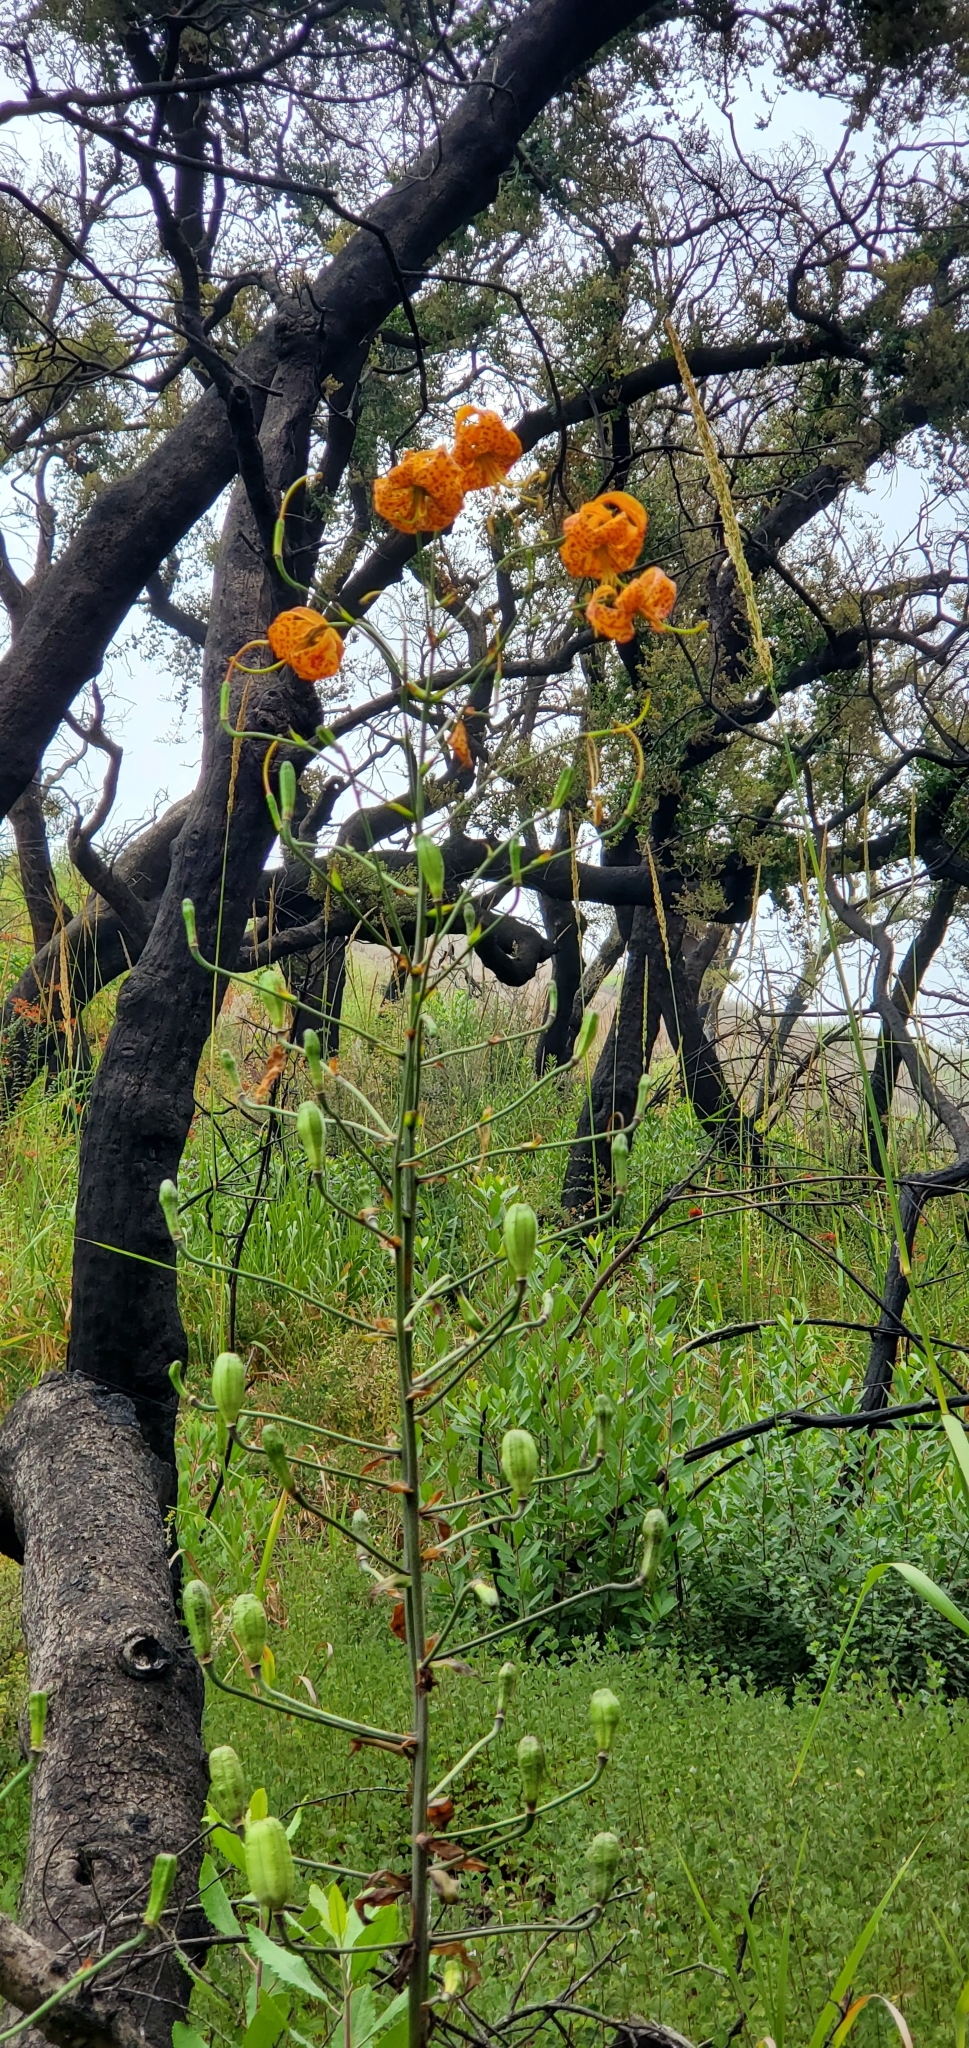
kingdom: Plantae
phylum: Tracheophyta
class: Liliopsida
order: Liliales
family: Liliaceae
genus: Lilium
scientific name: Lilium humboldtii
